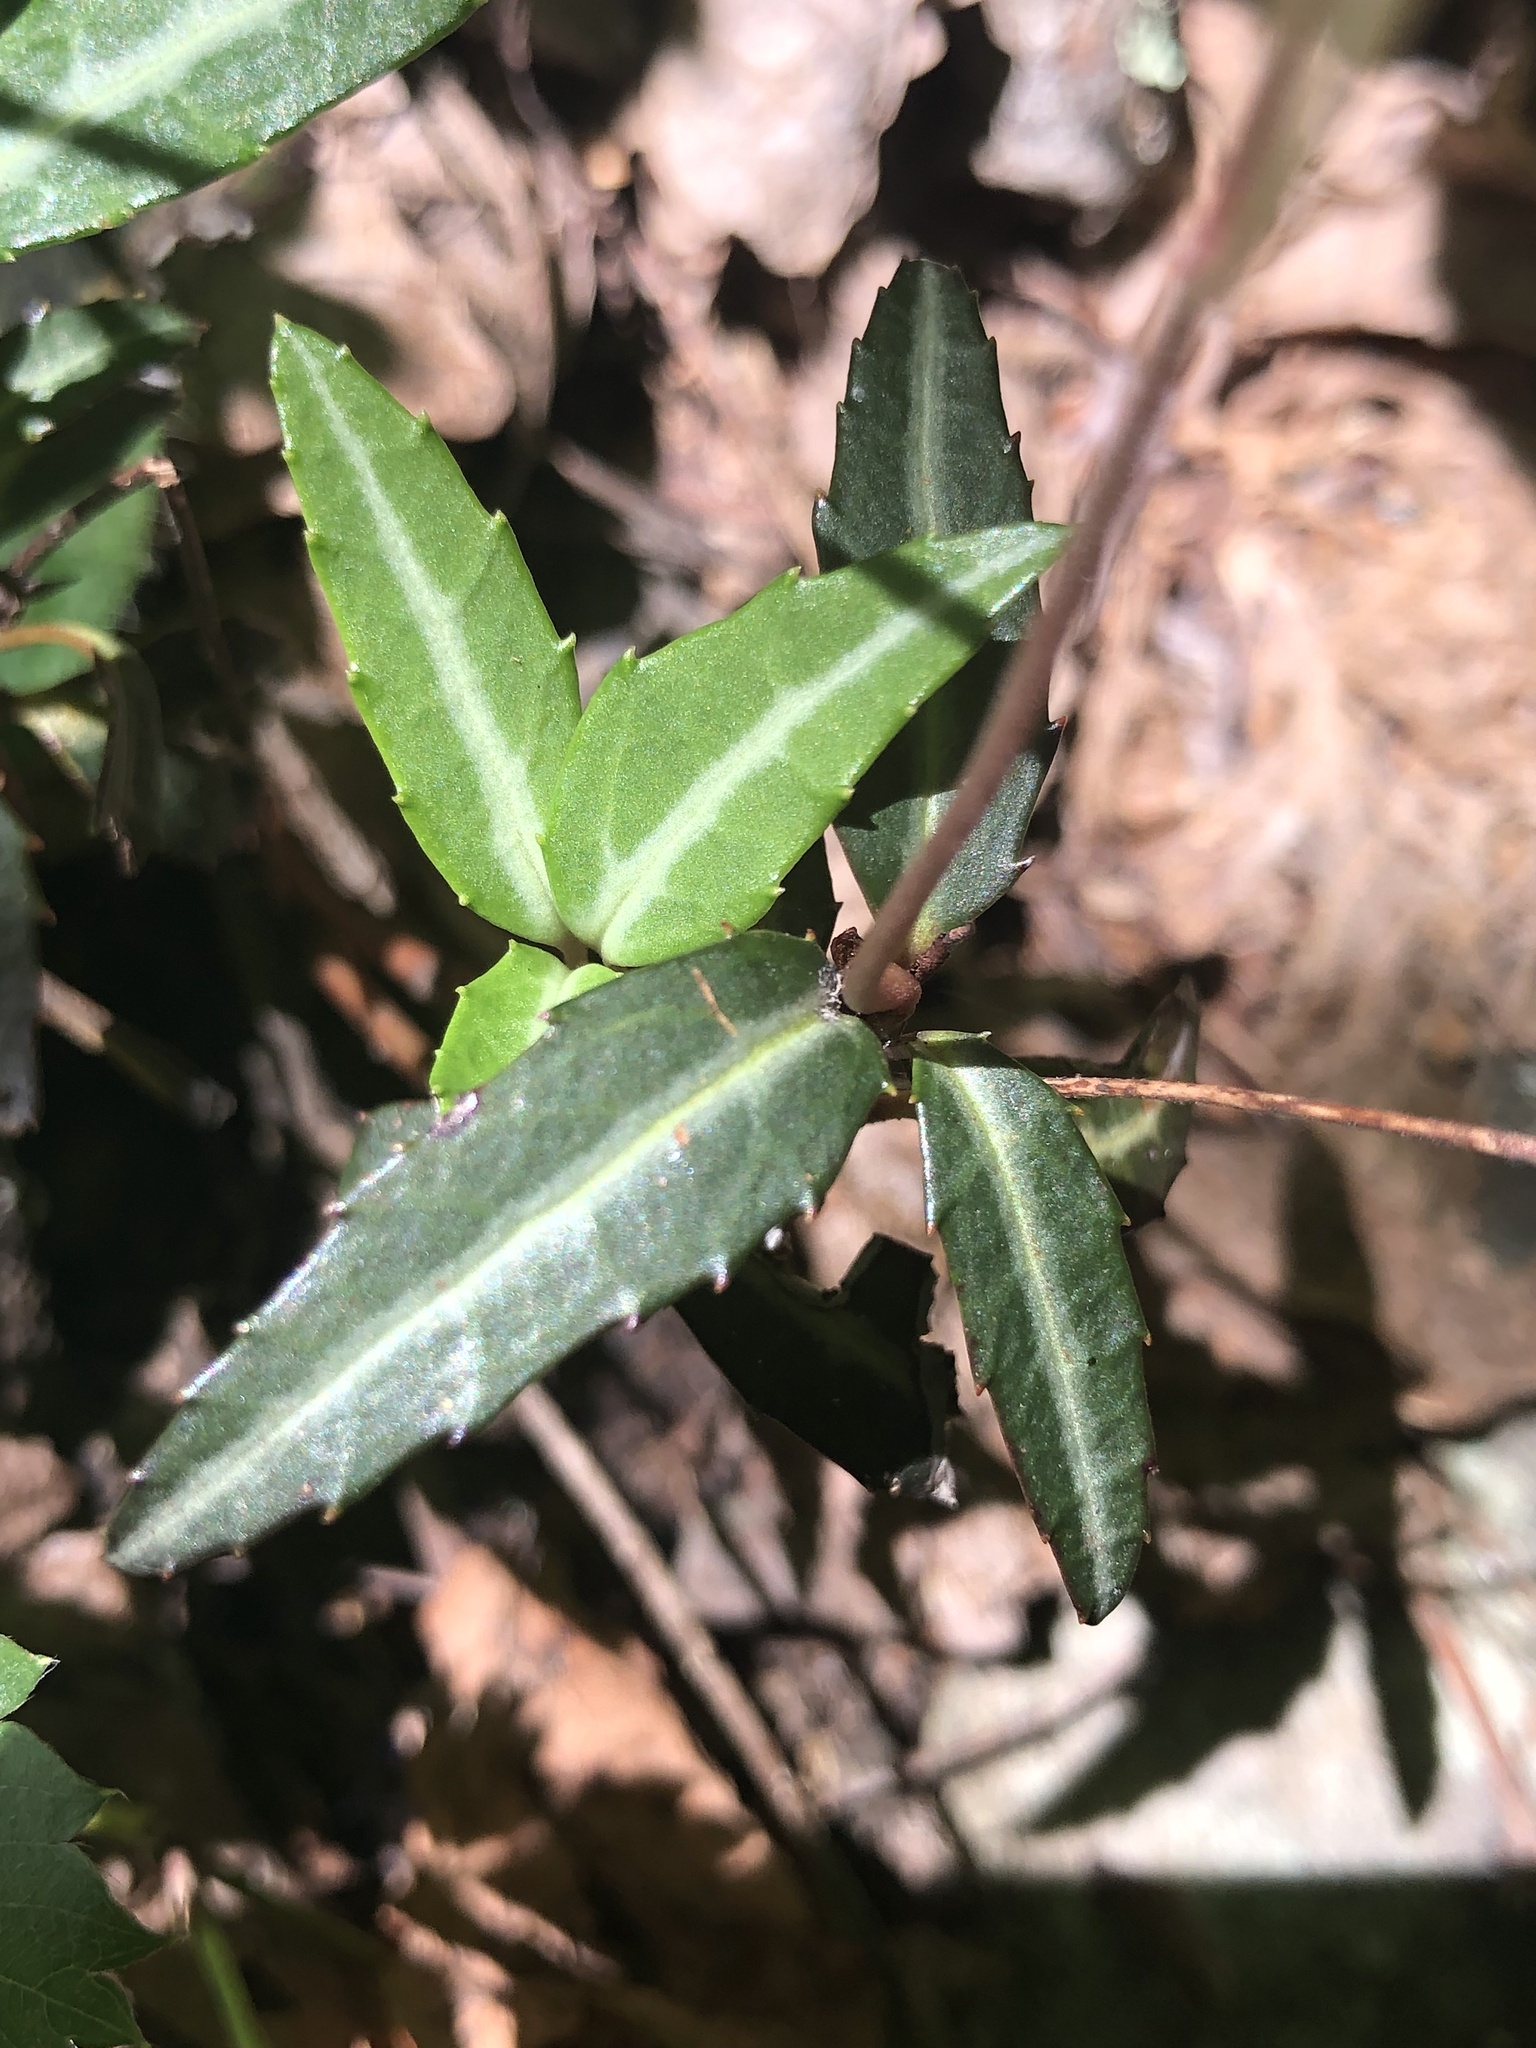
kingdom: Plantae
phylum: Tracheophyta
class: Magnoliopsida
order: Ericales
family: Ericaceae
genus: Chimaphila
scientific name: Chimaphila maculata
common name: Spotted pipsissewa
